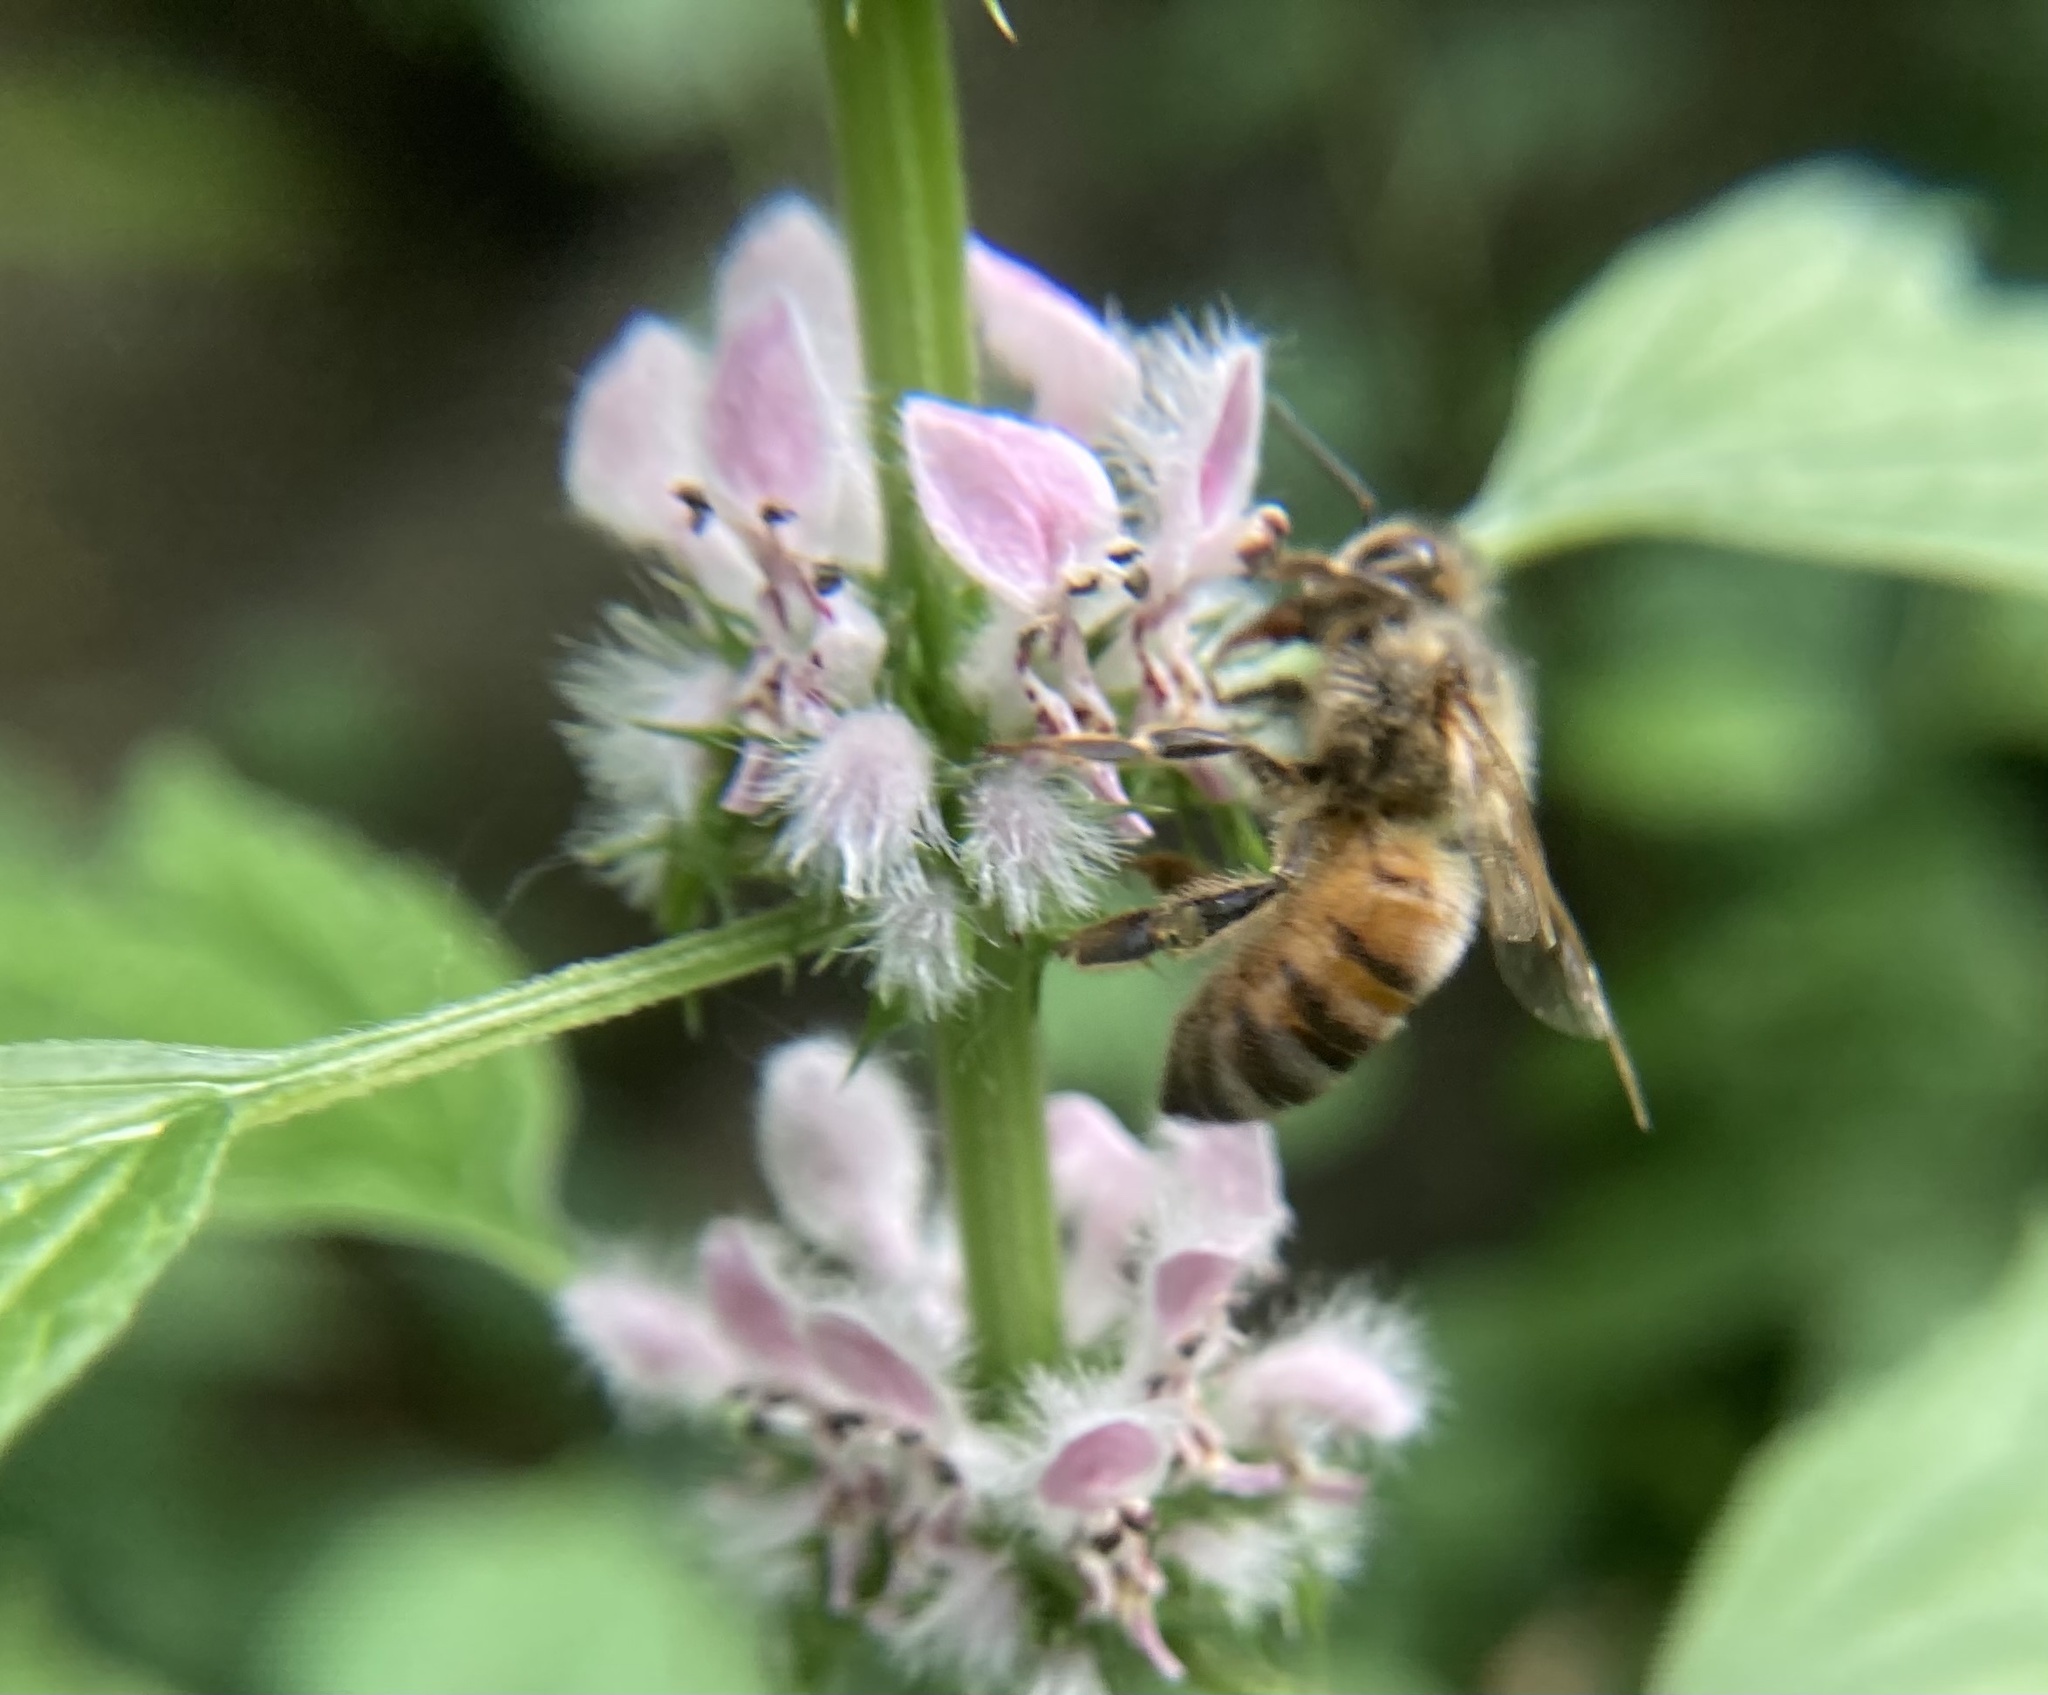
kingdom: Animalia
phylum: Arthropoda
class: Insecta
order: Hymenoptera
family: Apidae
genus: Apis
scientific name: Apis mellifera
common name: Honey bee
